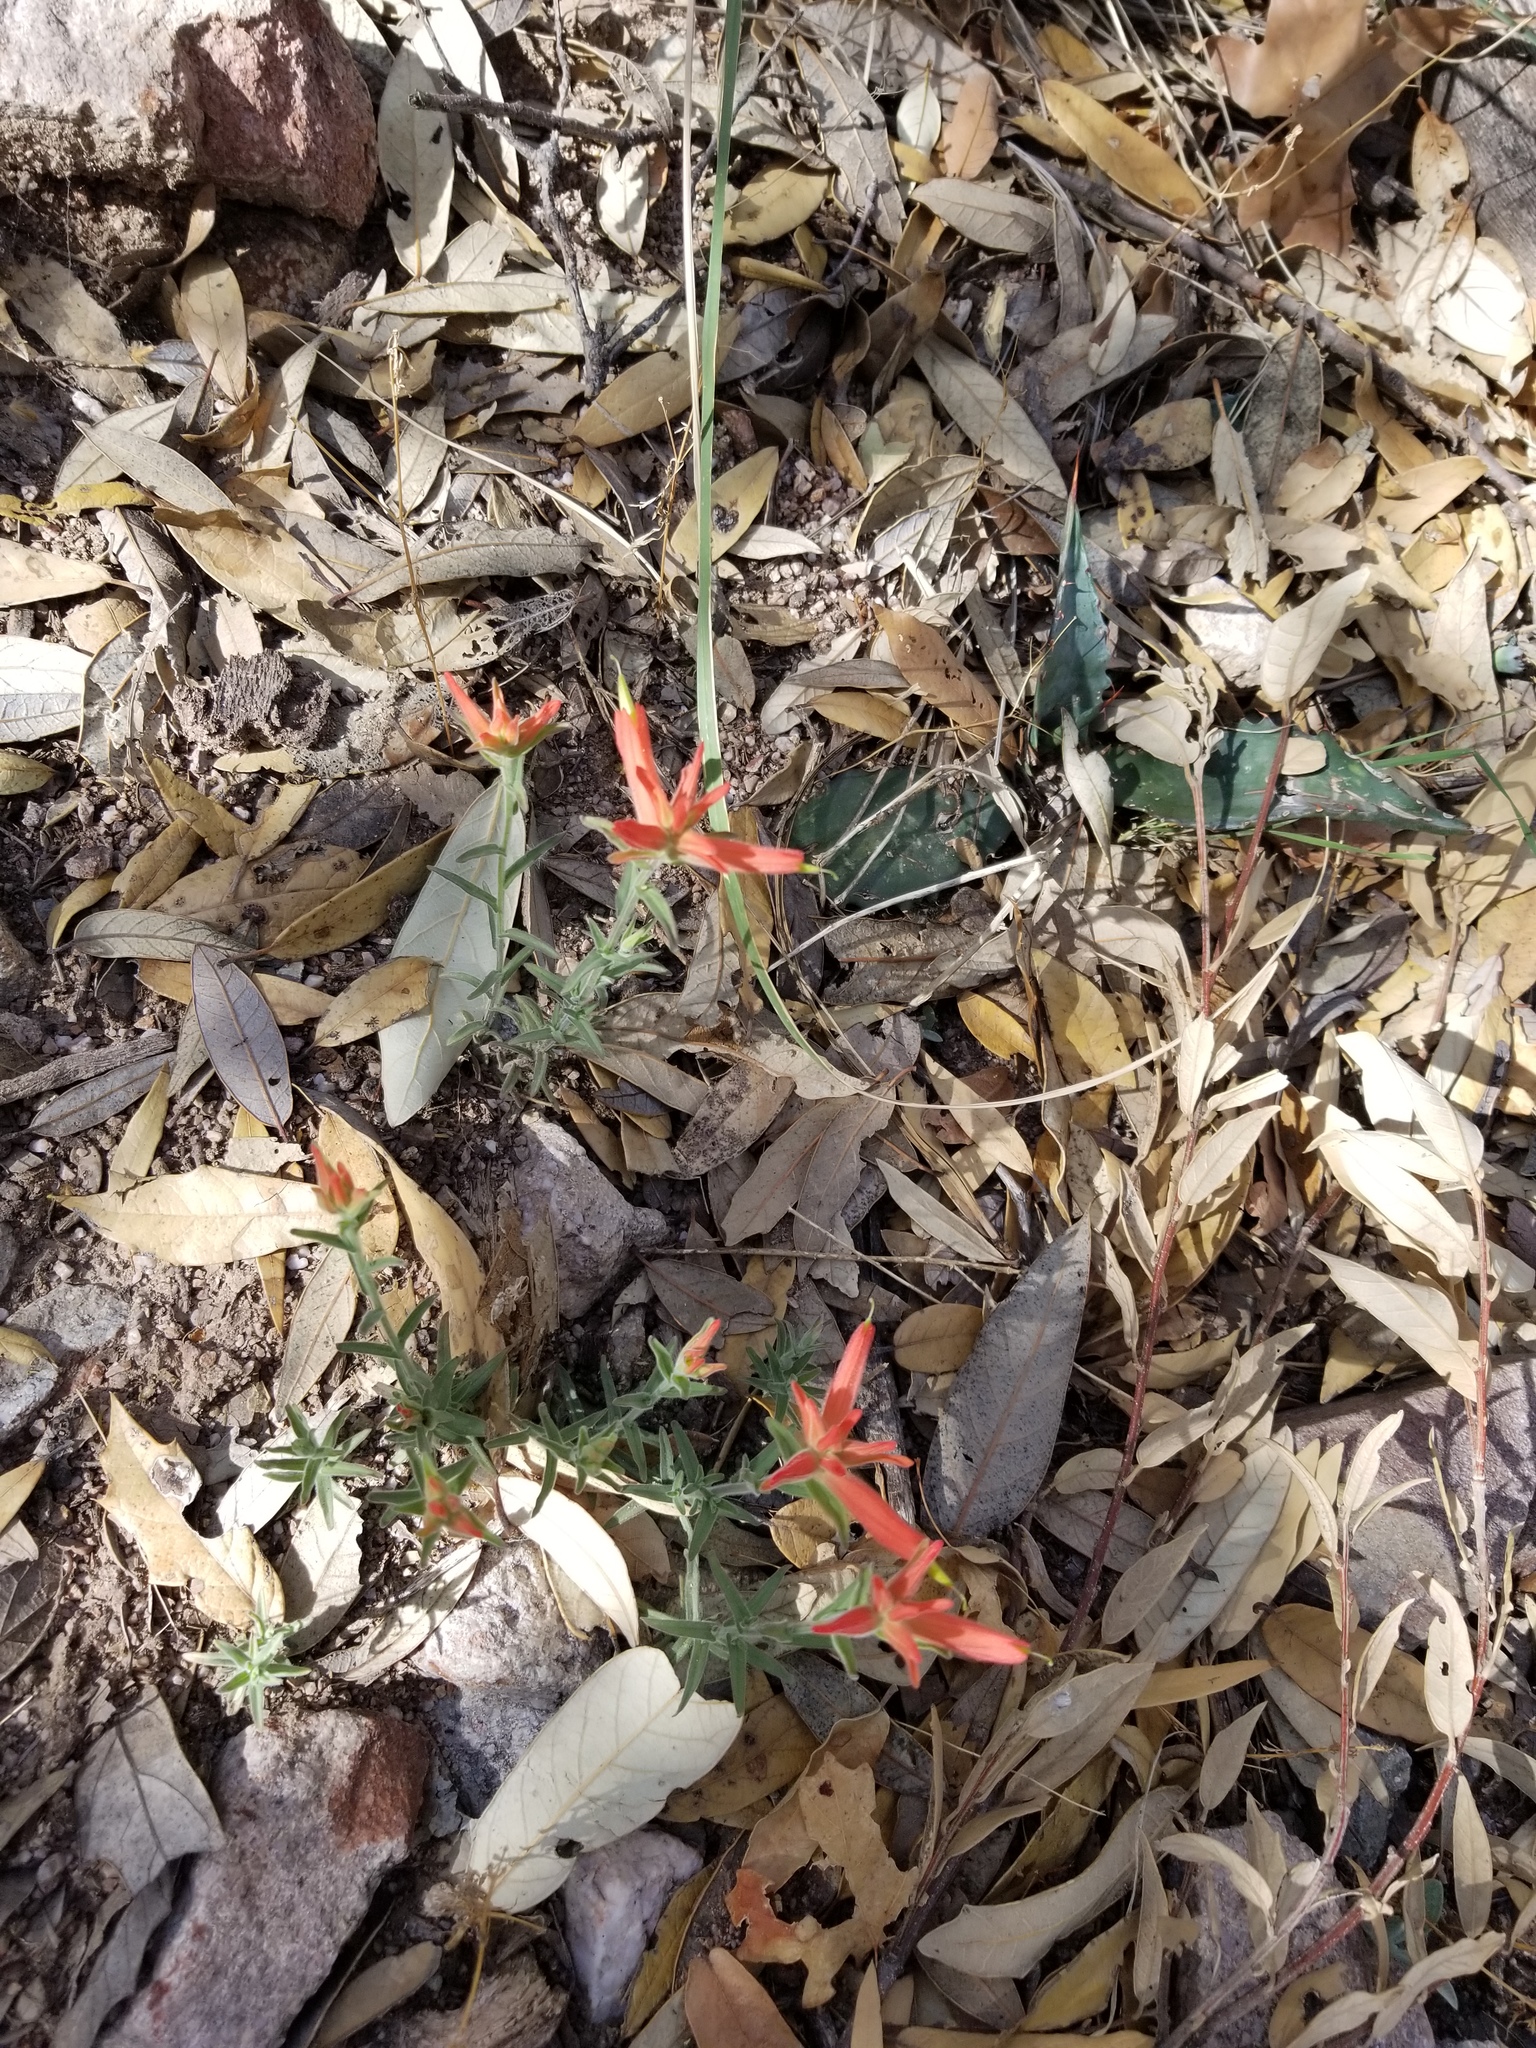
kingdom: Plantae
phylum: Tracheophyta
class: Magnoliopsida
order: Lamiales
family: Orobanchaceae
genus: Castilleja
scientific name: Castilleja tenuiflora
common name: Santa catalina indian paintbrush
